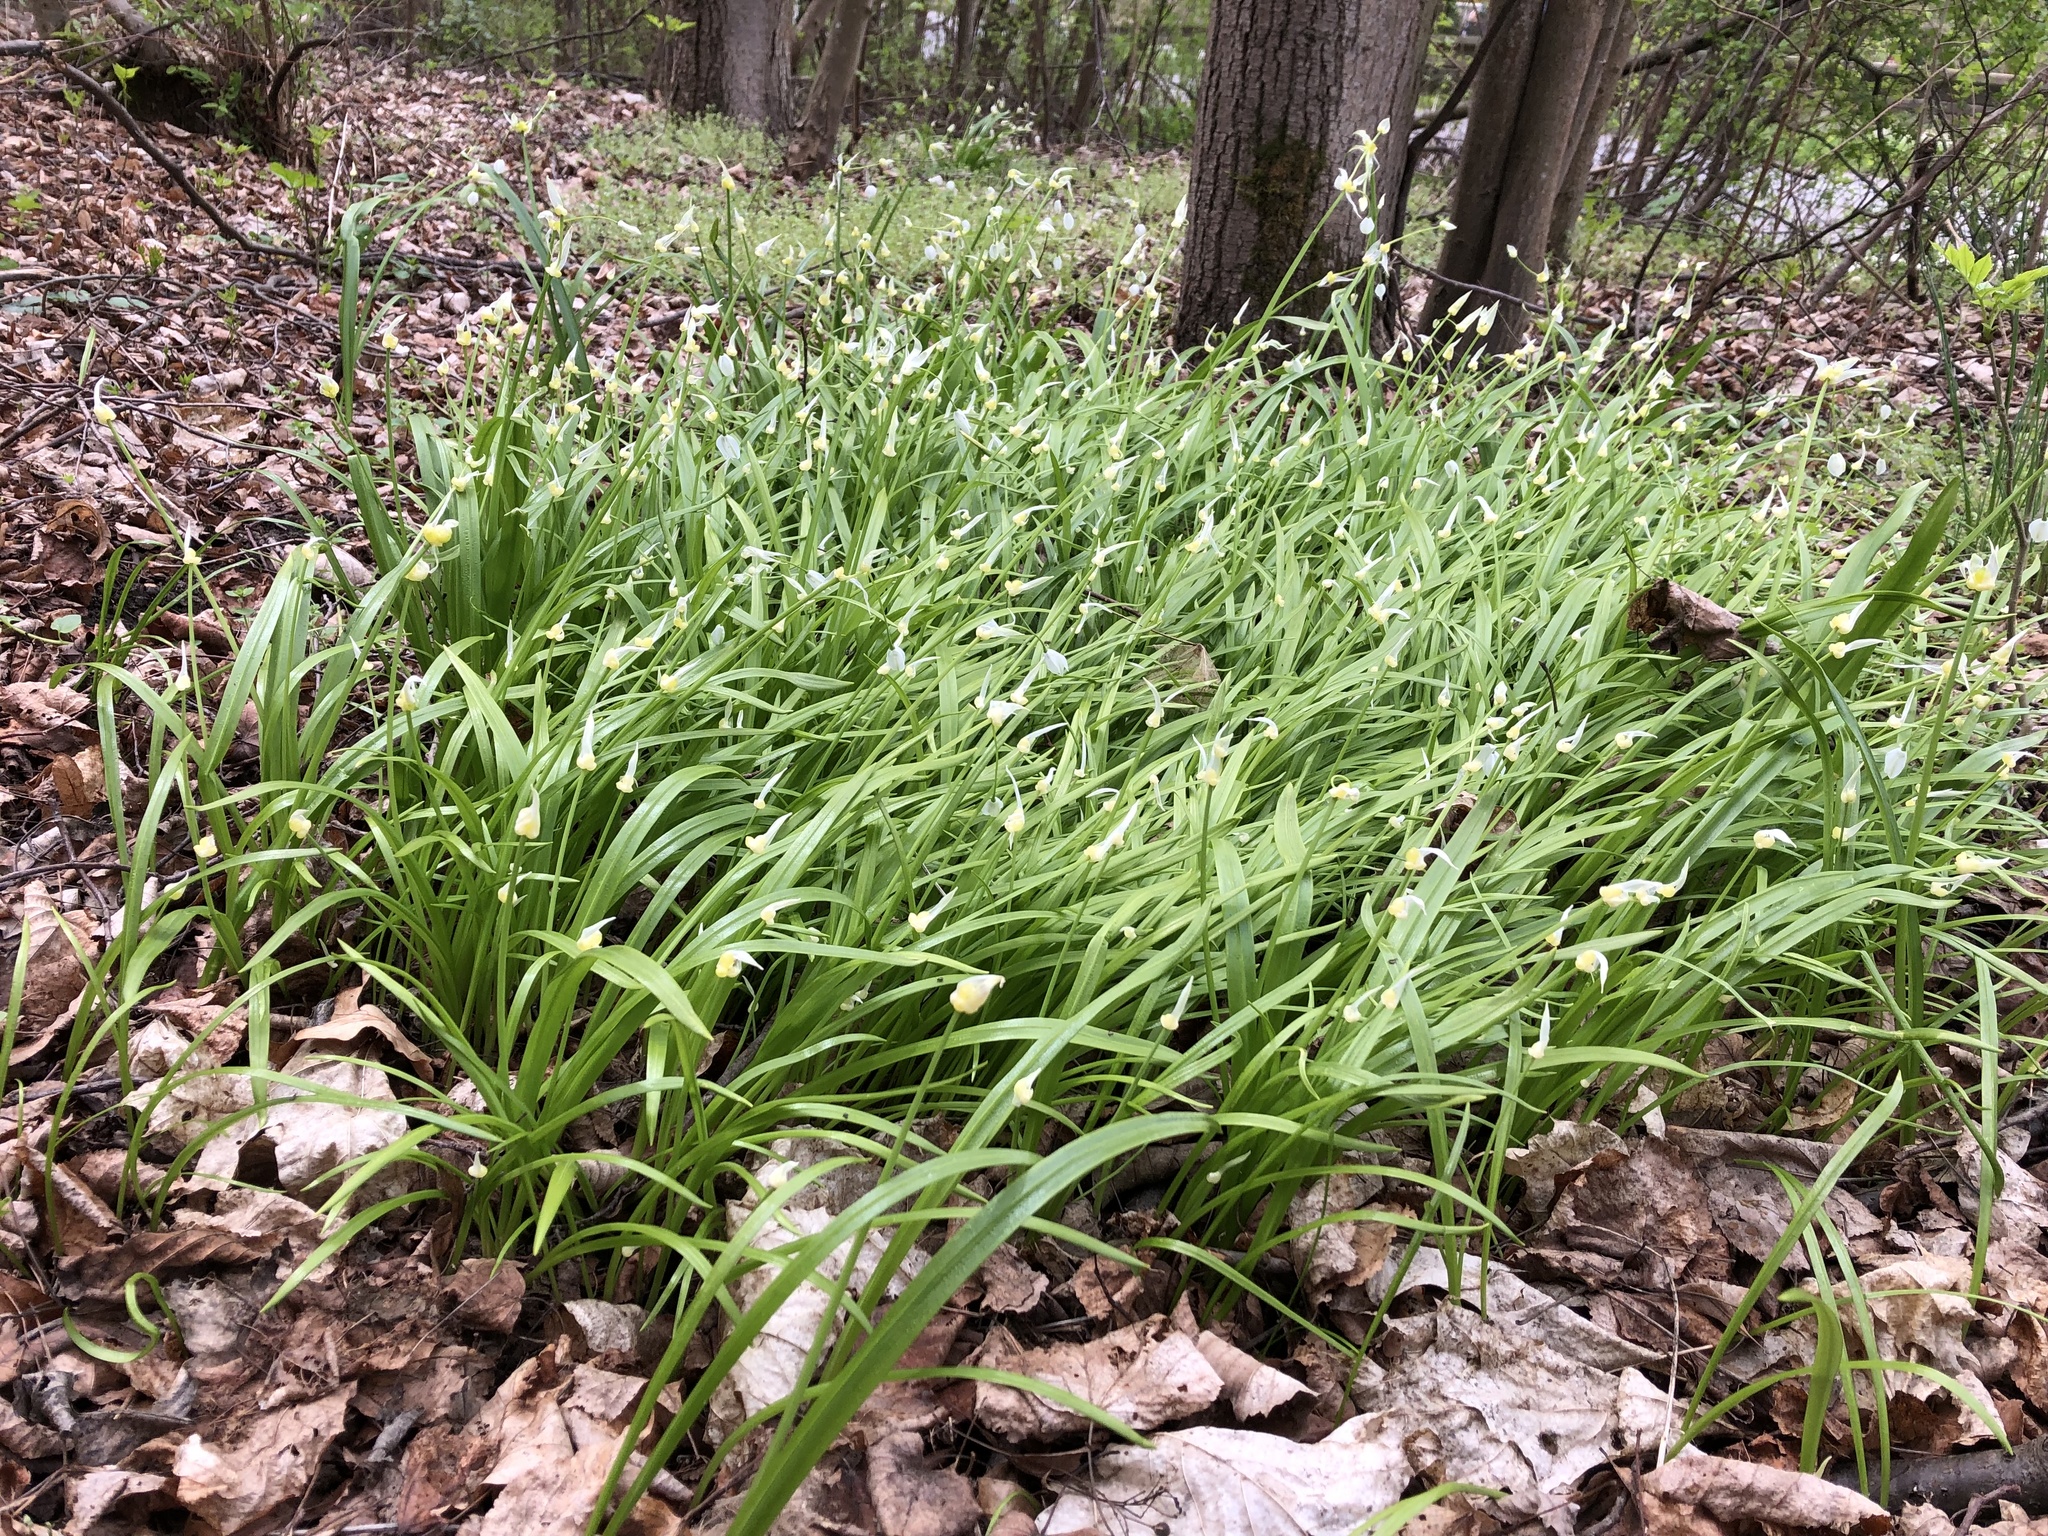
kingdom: Plantae
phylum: Tracheophyta
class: Liliopsida
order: Asparagales
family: Amaryllidaceae
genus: Allium
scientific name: Allium paradoxum
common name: Few-flowered garlic
